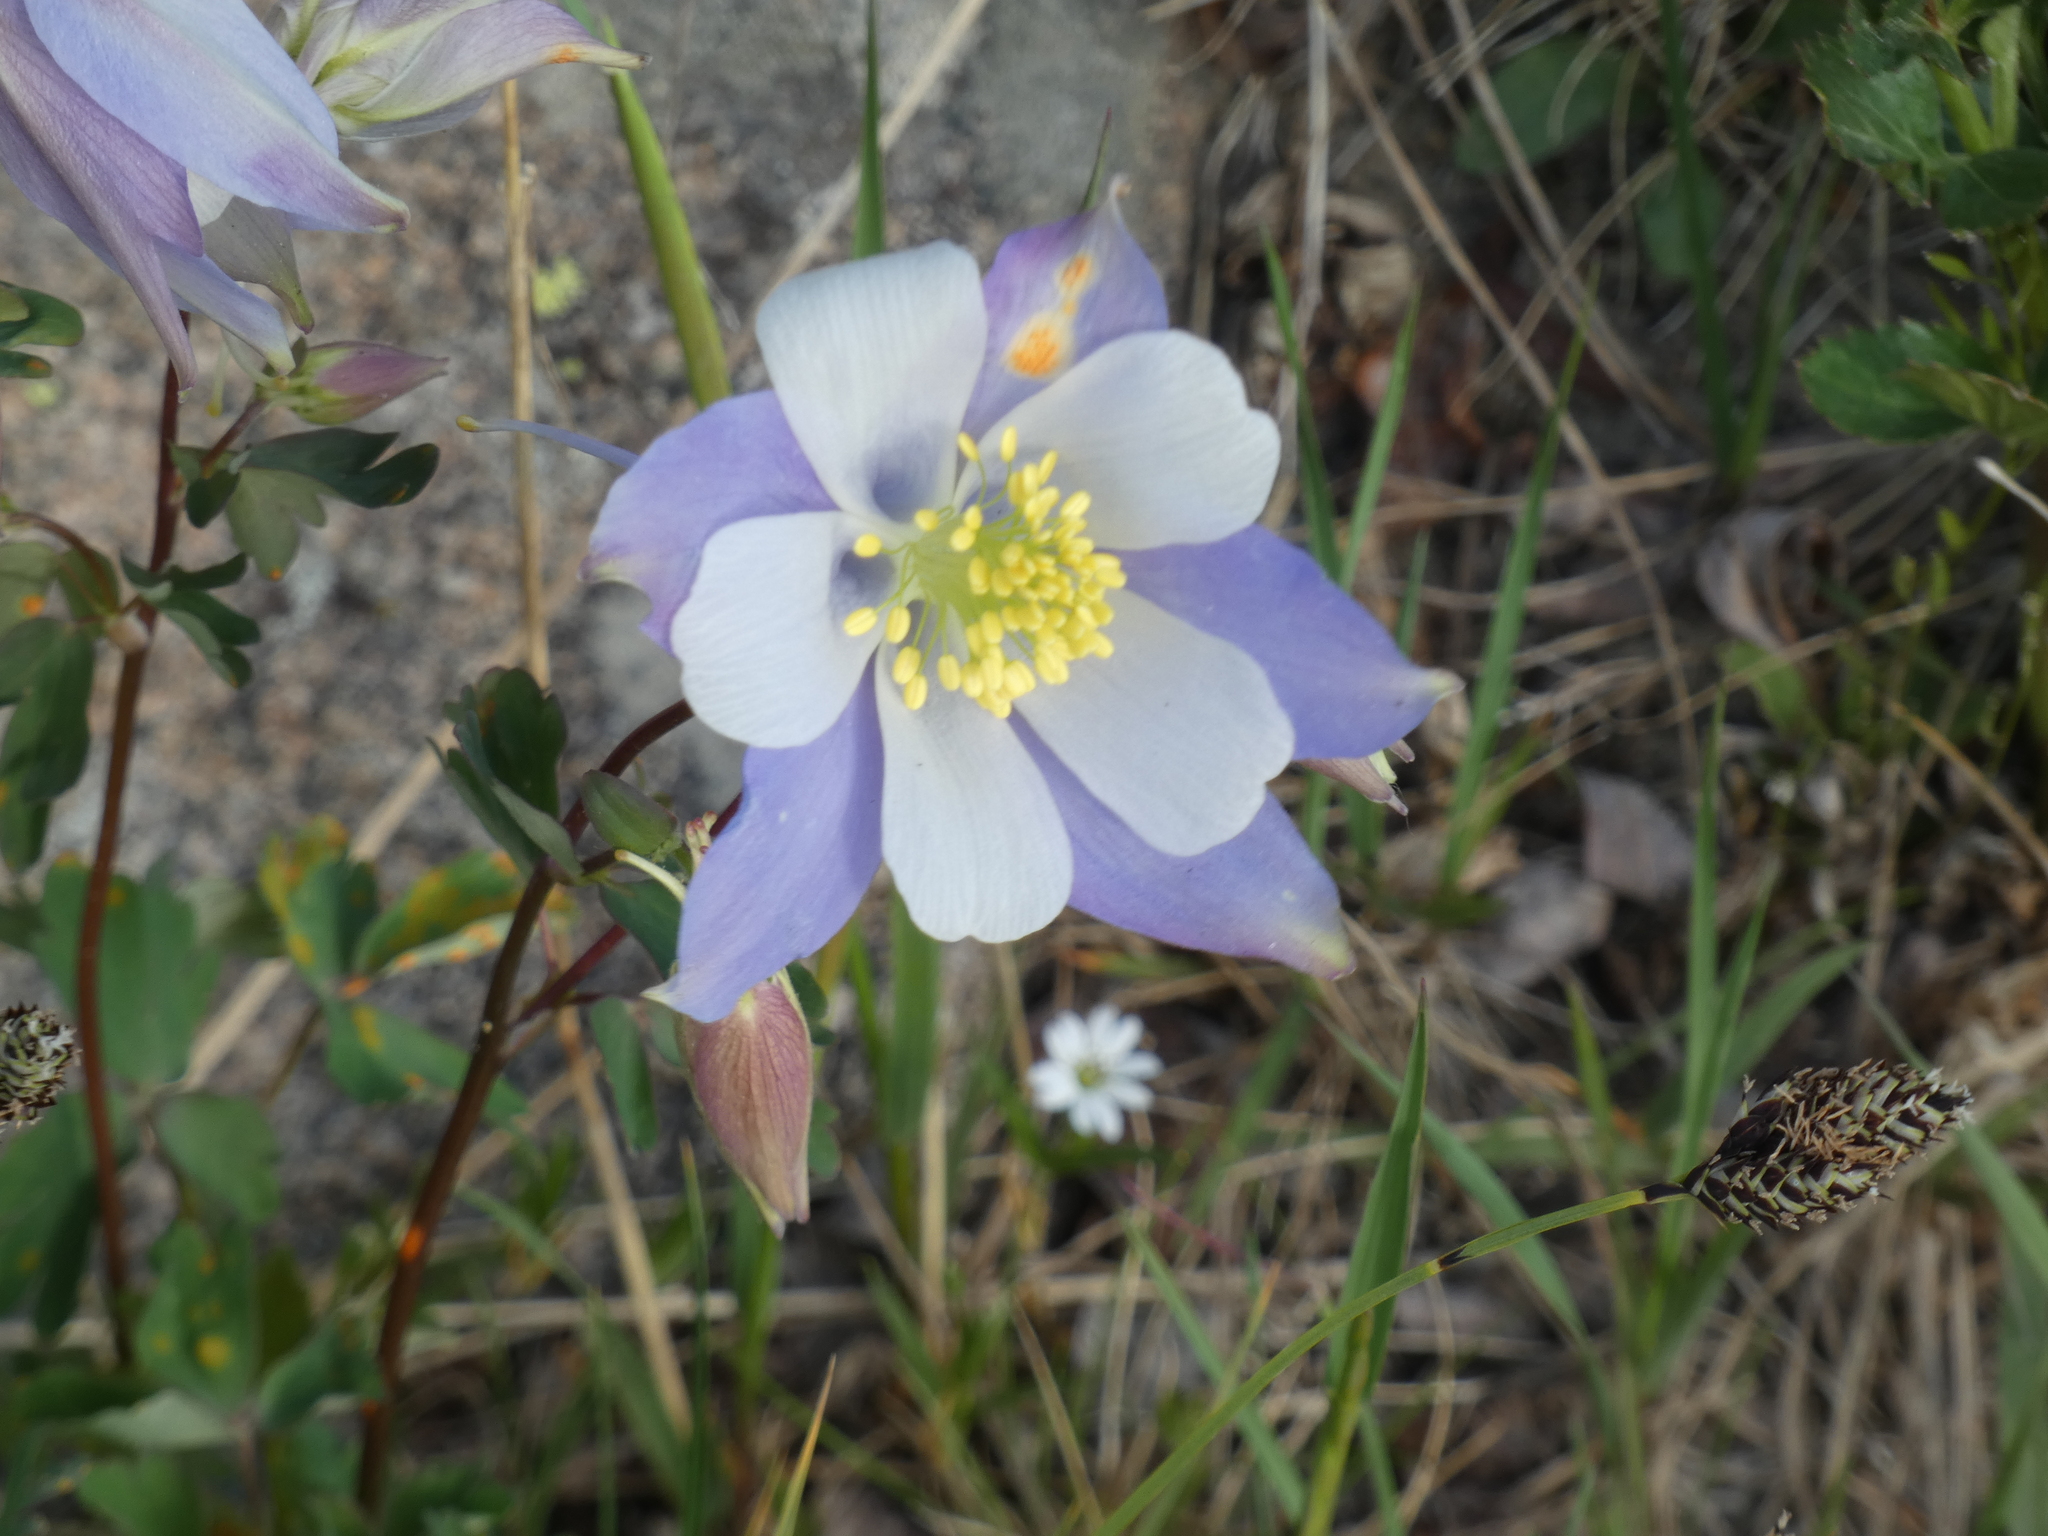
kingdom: Plantae
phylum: Tracheophyta
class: Magnoliopsida
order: Ranunculales
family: Ranunculaceae
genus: Aquilegia
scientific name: Aquilegia coerulea
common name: Rocky mountain columbine
